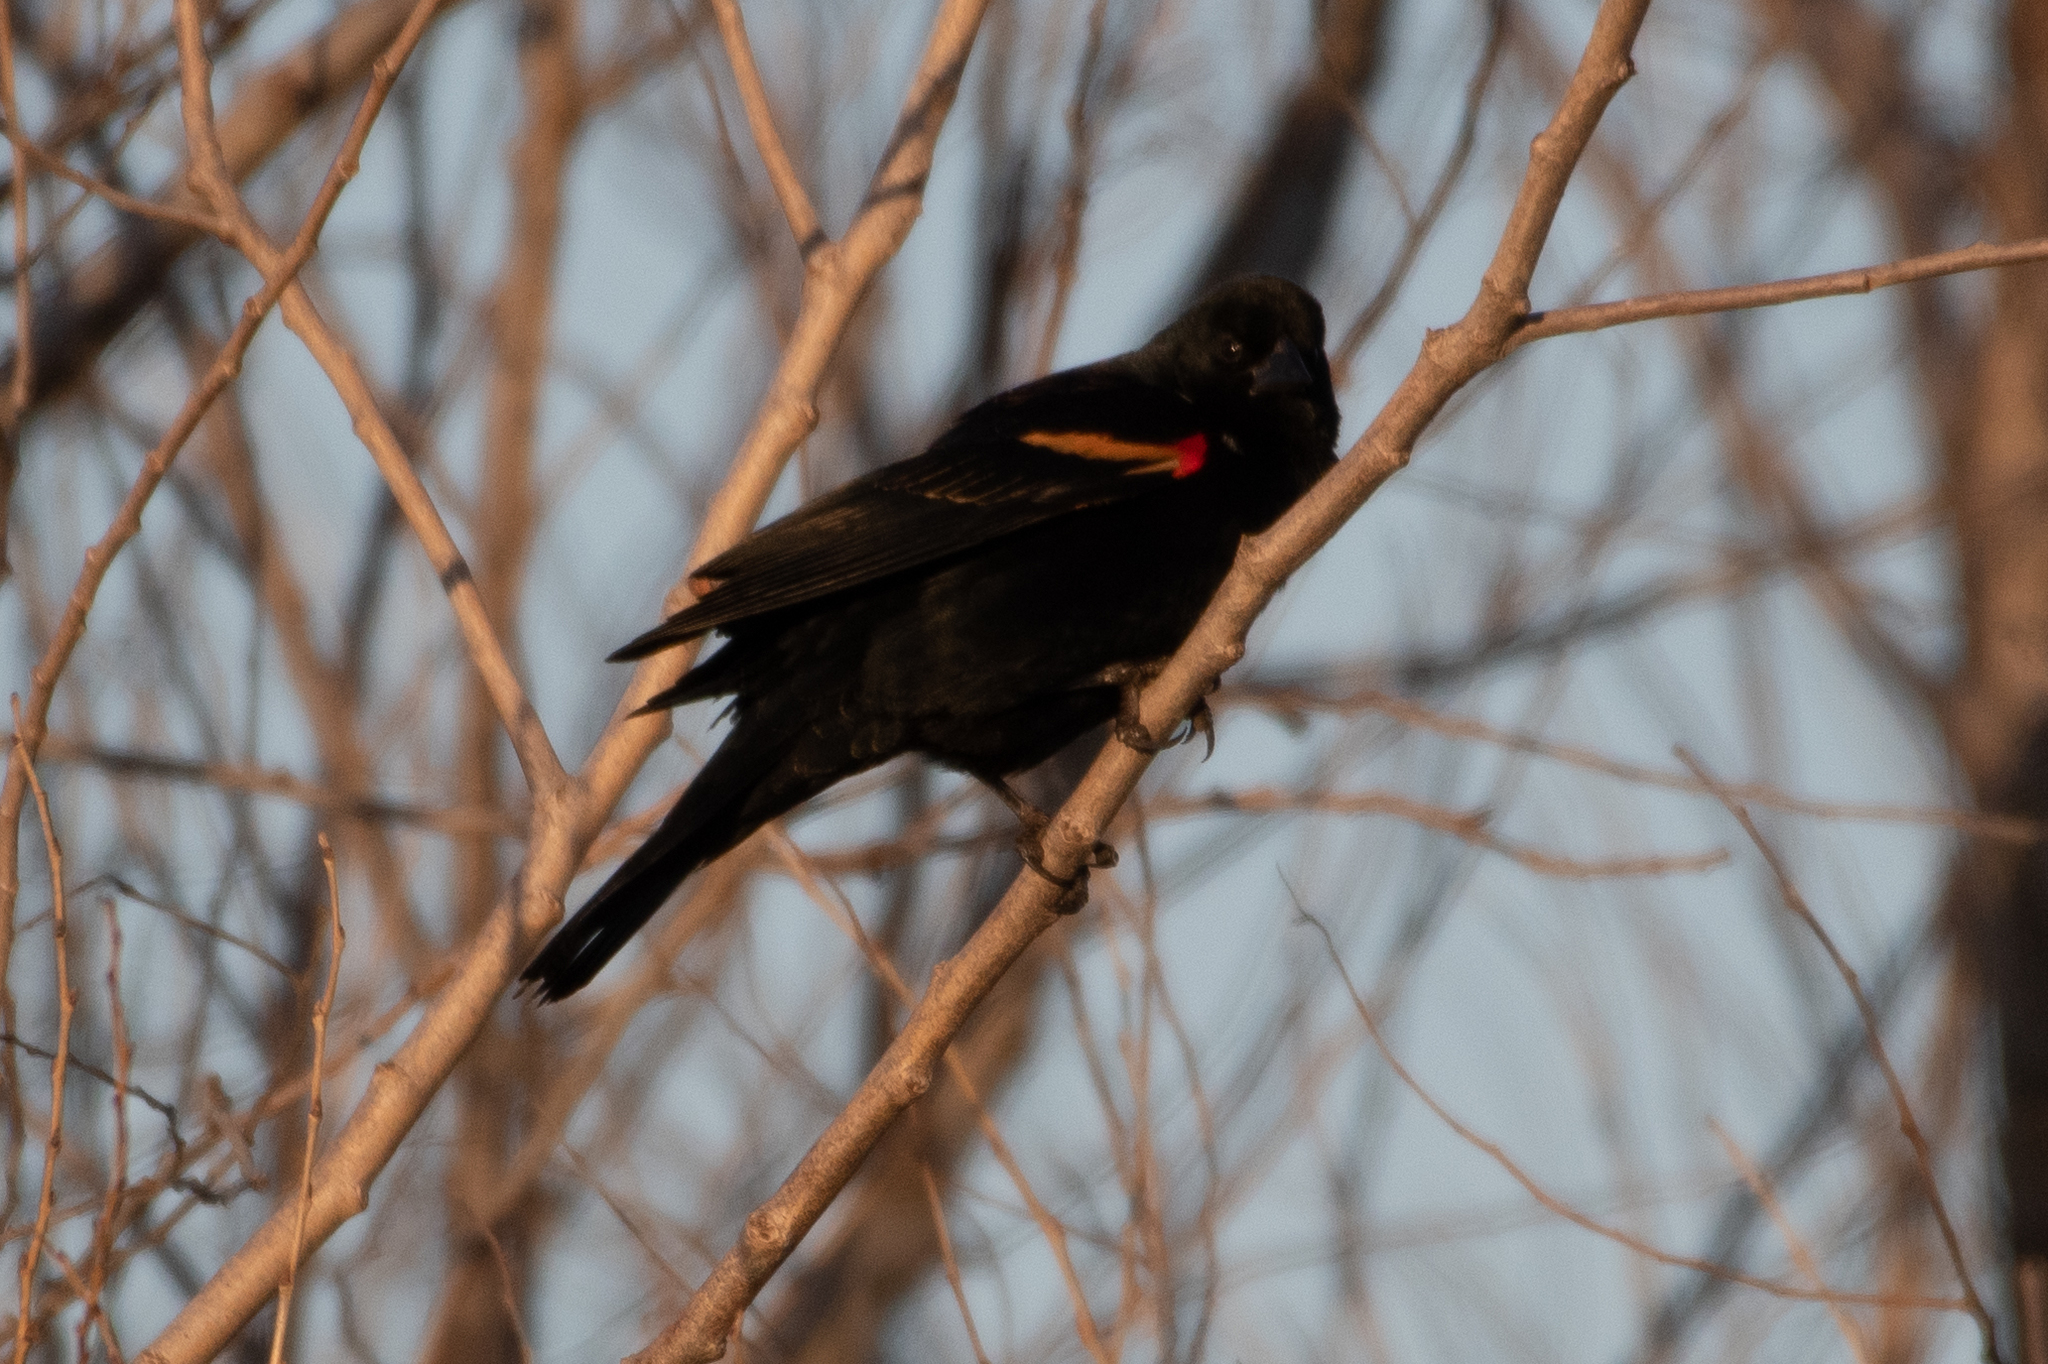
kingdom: Animalia
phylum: Chordata
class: Aves
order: Passeriformes
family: Icteridae
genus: Agelaius
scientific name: Agelaius phoeniceus
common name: Red-winged blackbird
